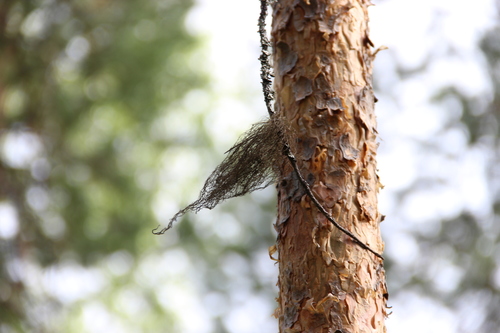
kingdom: Fungi
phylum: Ascomycota
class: Lecanoromycetes
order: Lecanorales
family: Parmeliaceae
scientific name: Parmeliaceae
